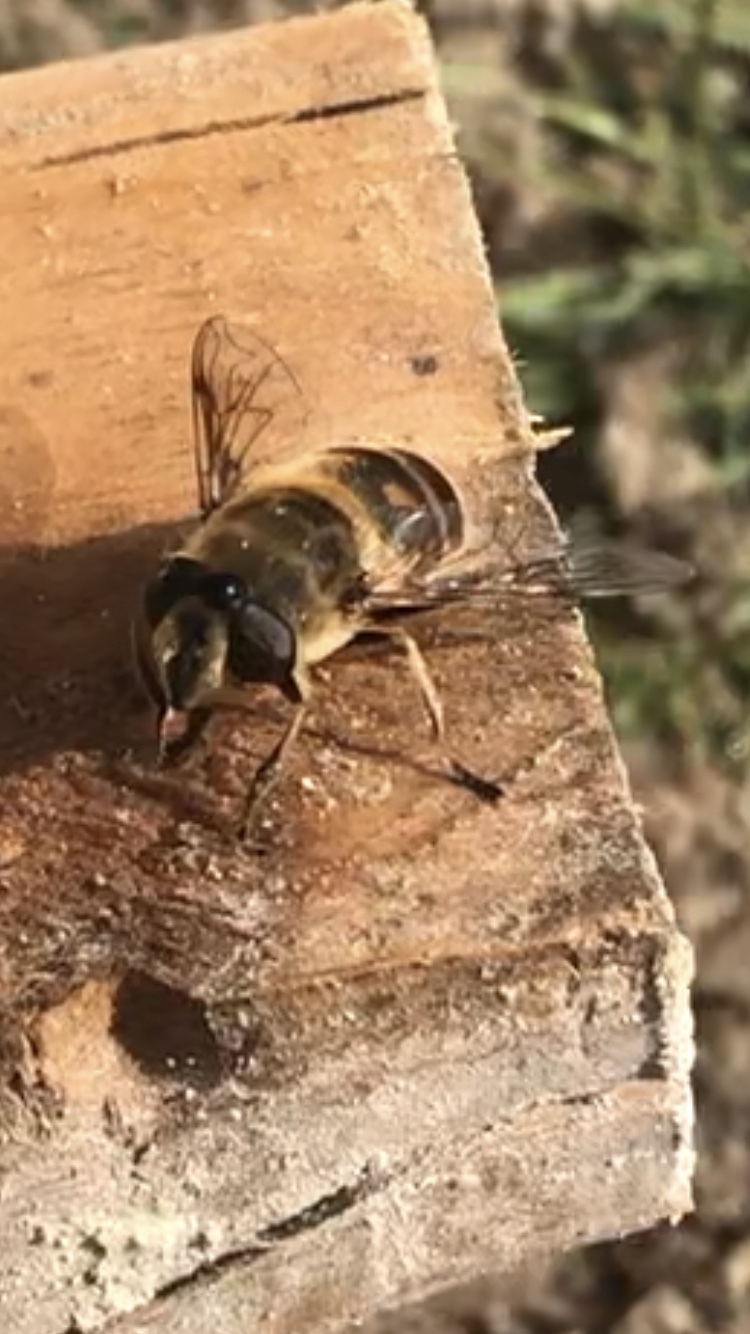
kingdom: Animalia
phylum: Arthropoda
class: Insecta
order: Diptera
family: Syrphidae
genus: Eristalis
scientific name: Eristalis tenax
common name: Drone fly
